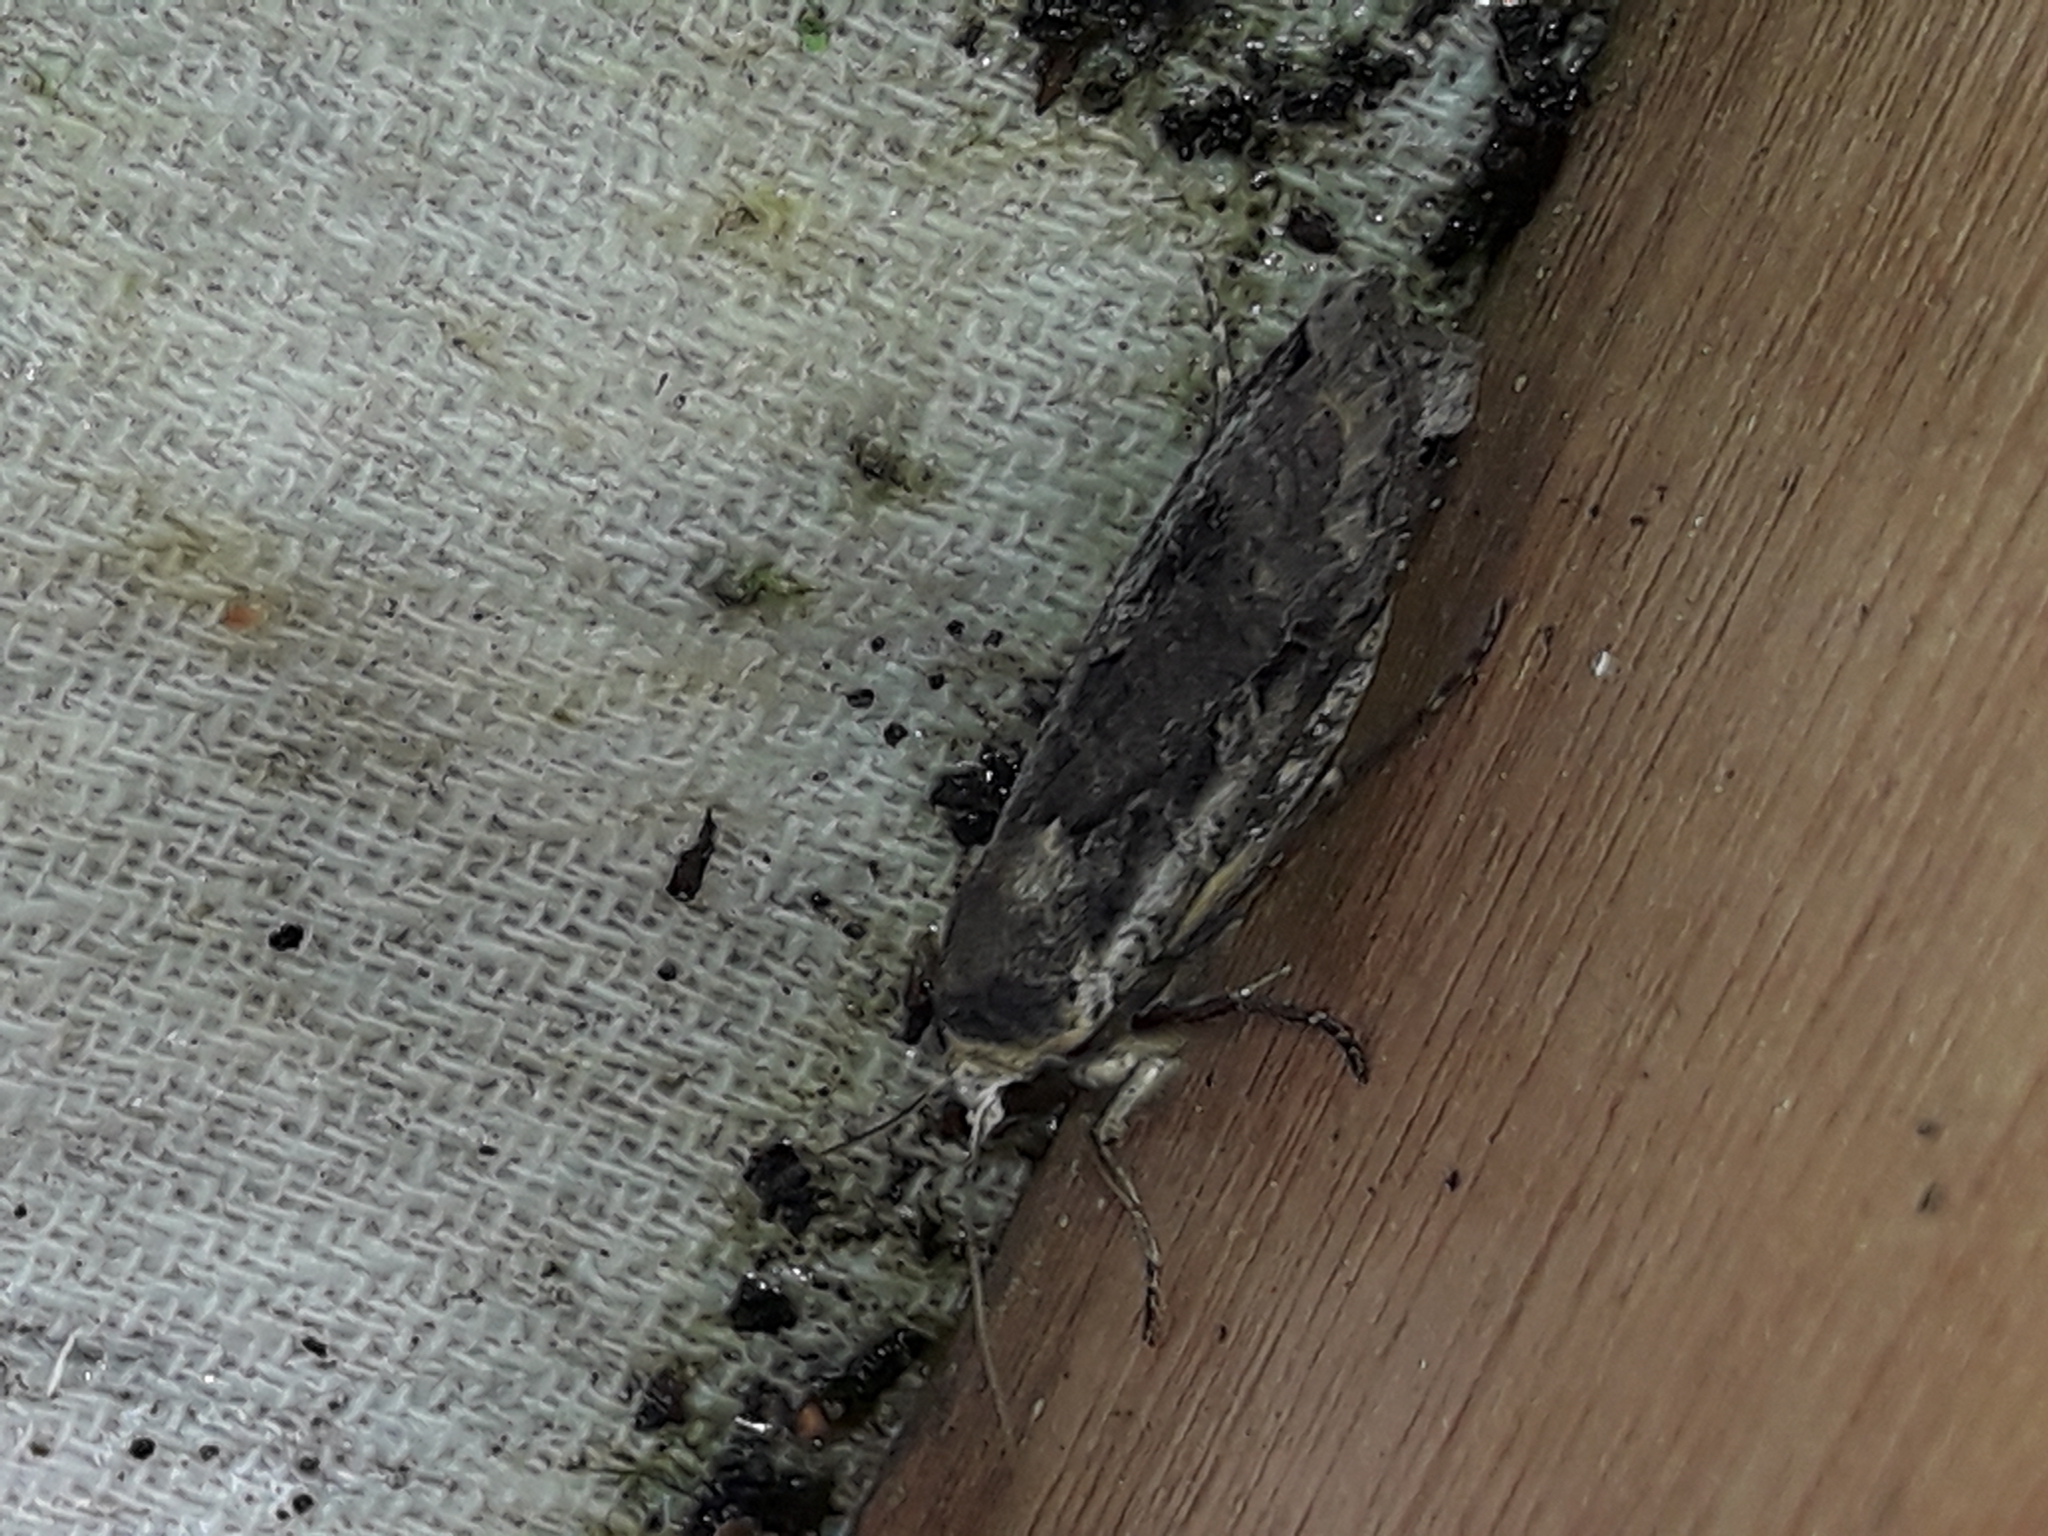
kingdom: Animalia
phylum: Arthropoda
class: Insecta
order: Lepidoptera
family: Noctuidae
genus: Noctua
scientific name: Noctua pronuba
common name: Large yellow underwing
